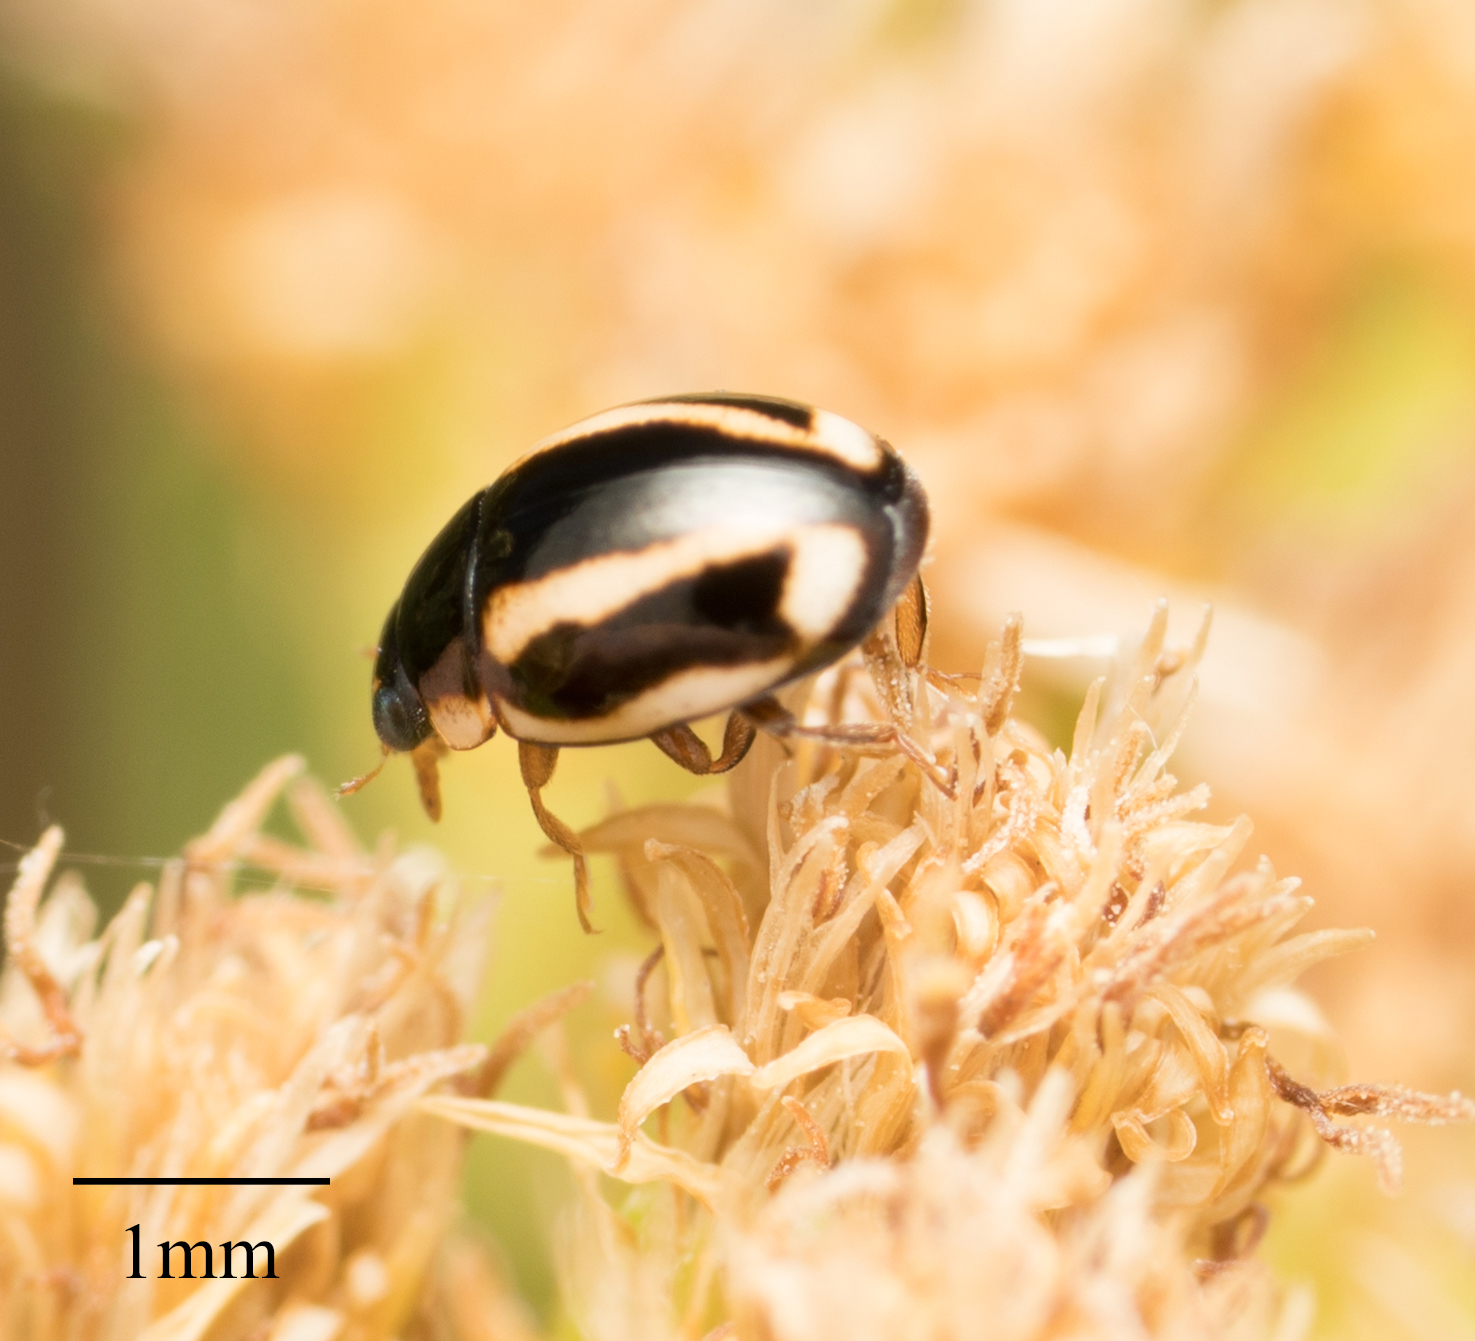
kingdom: Animalia
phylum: Arthropoda
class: Insecta
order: Coleoptera
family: Coccinellidae
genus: Hyperaspis
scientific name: Hyperaspis annexa
